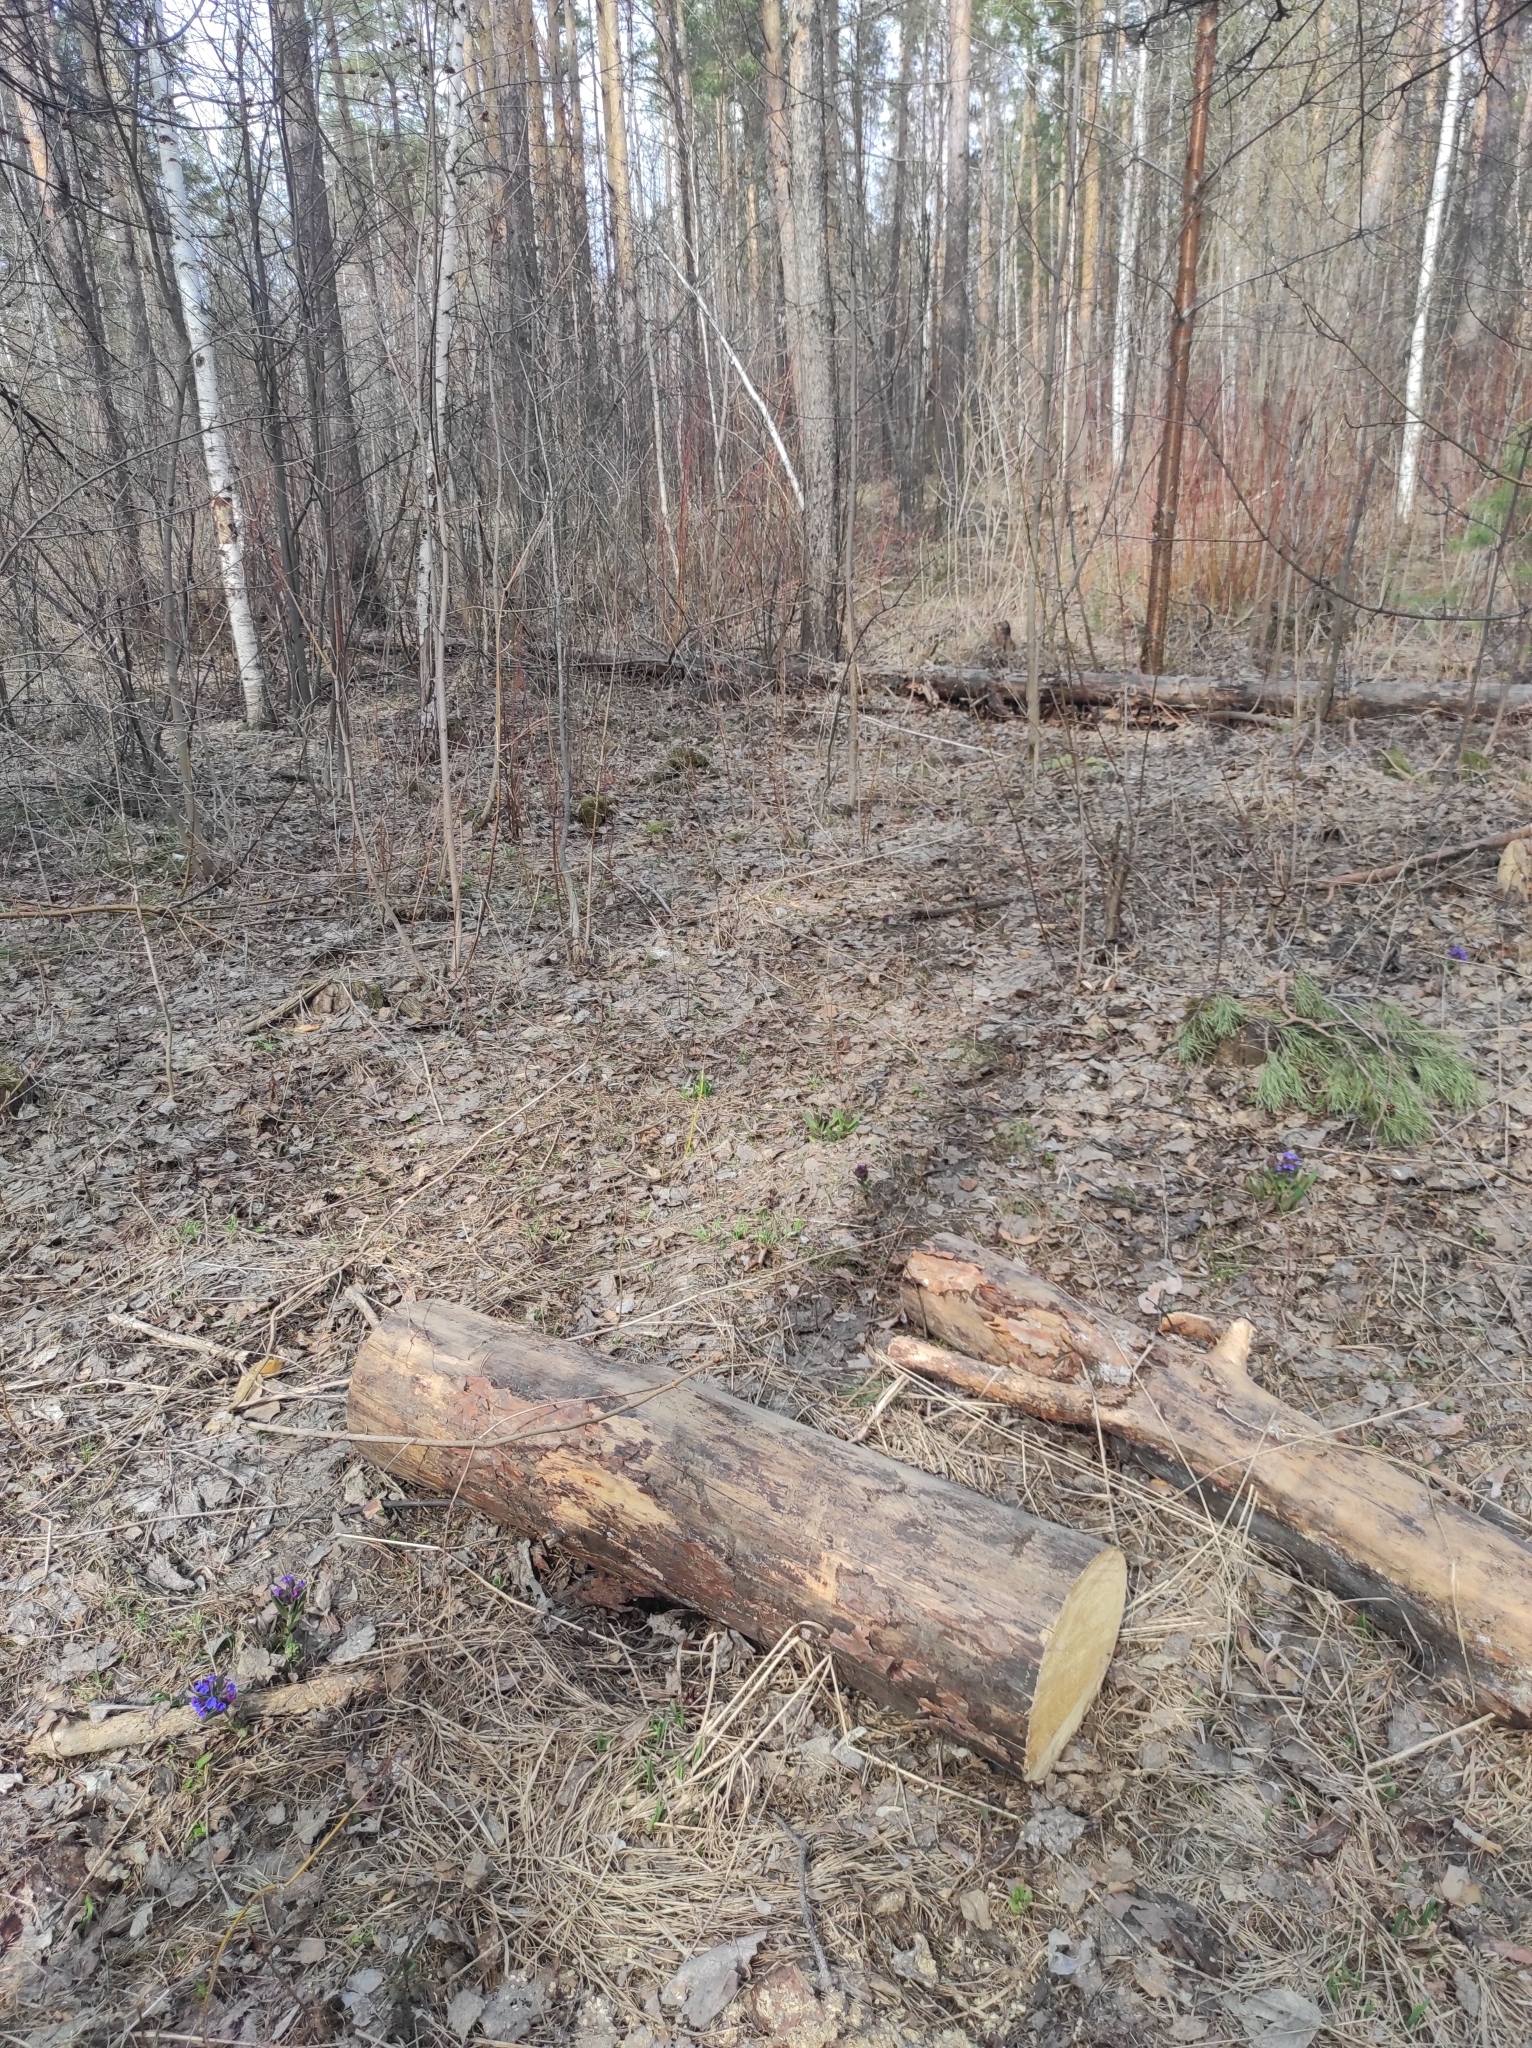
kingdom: Plantae
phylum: Tracheophyta
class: Magnoliopsida
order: Boraginales
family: Boraginaceae
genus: Pulmonaria
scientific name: Pulmonaria mollis
